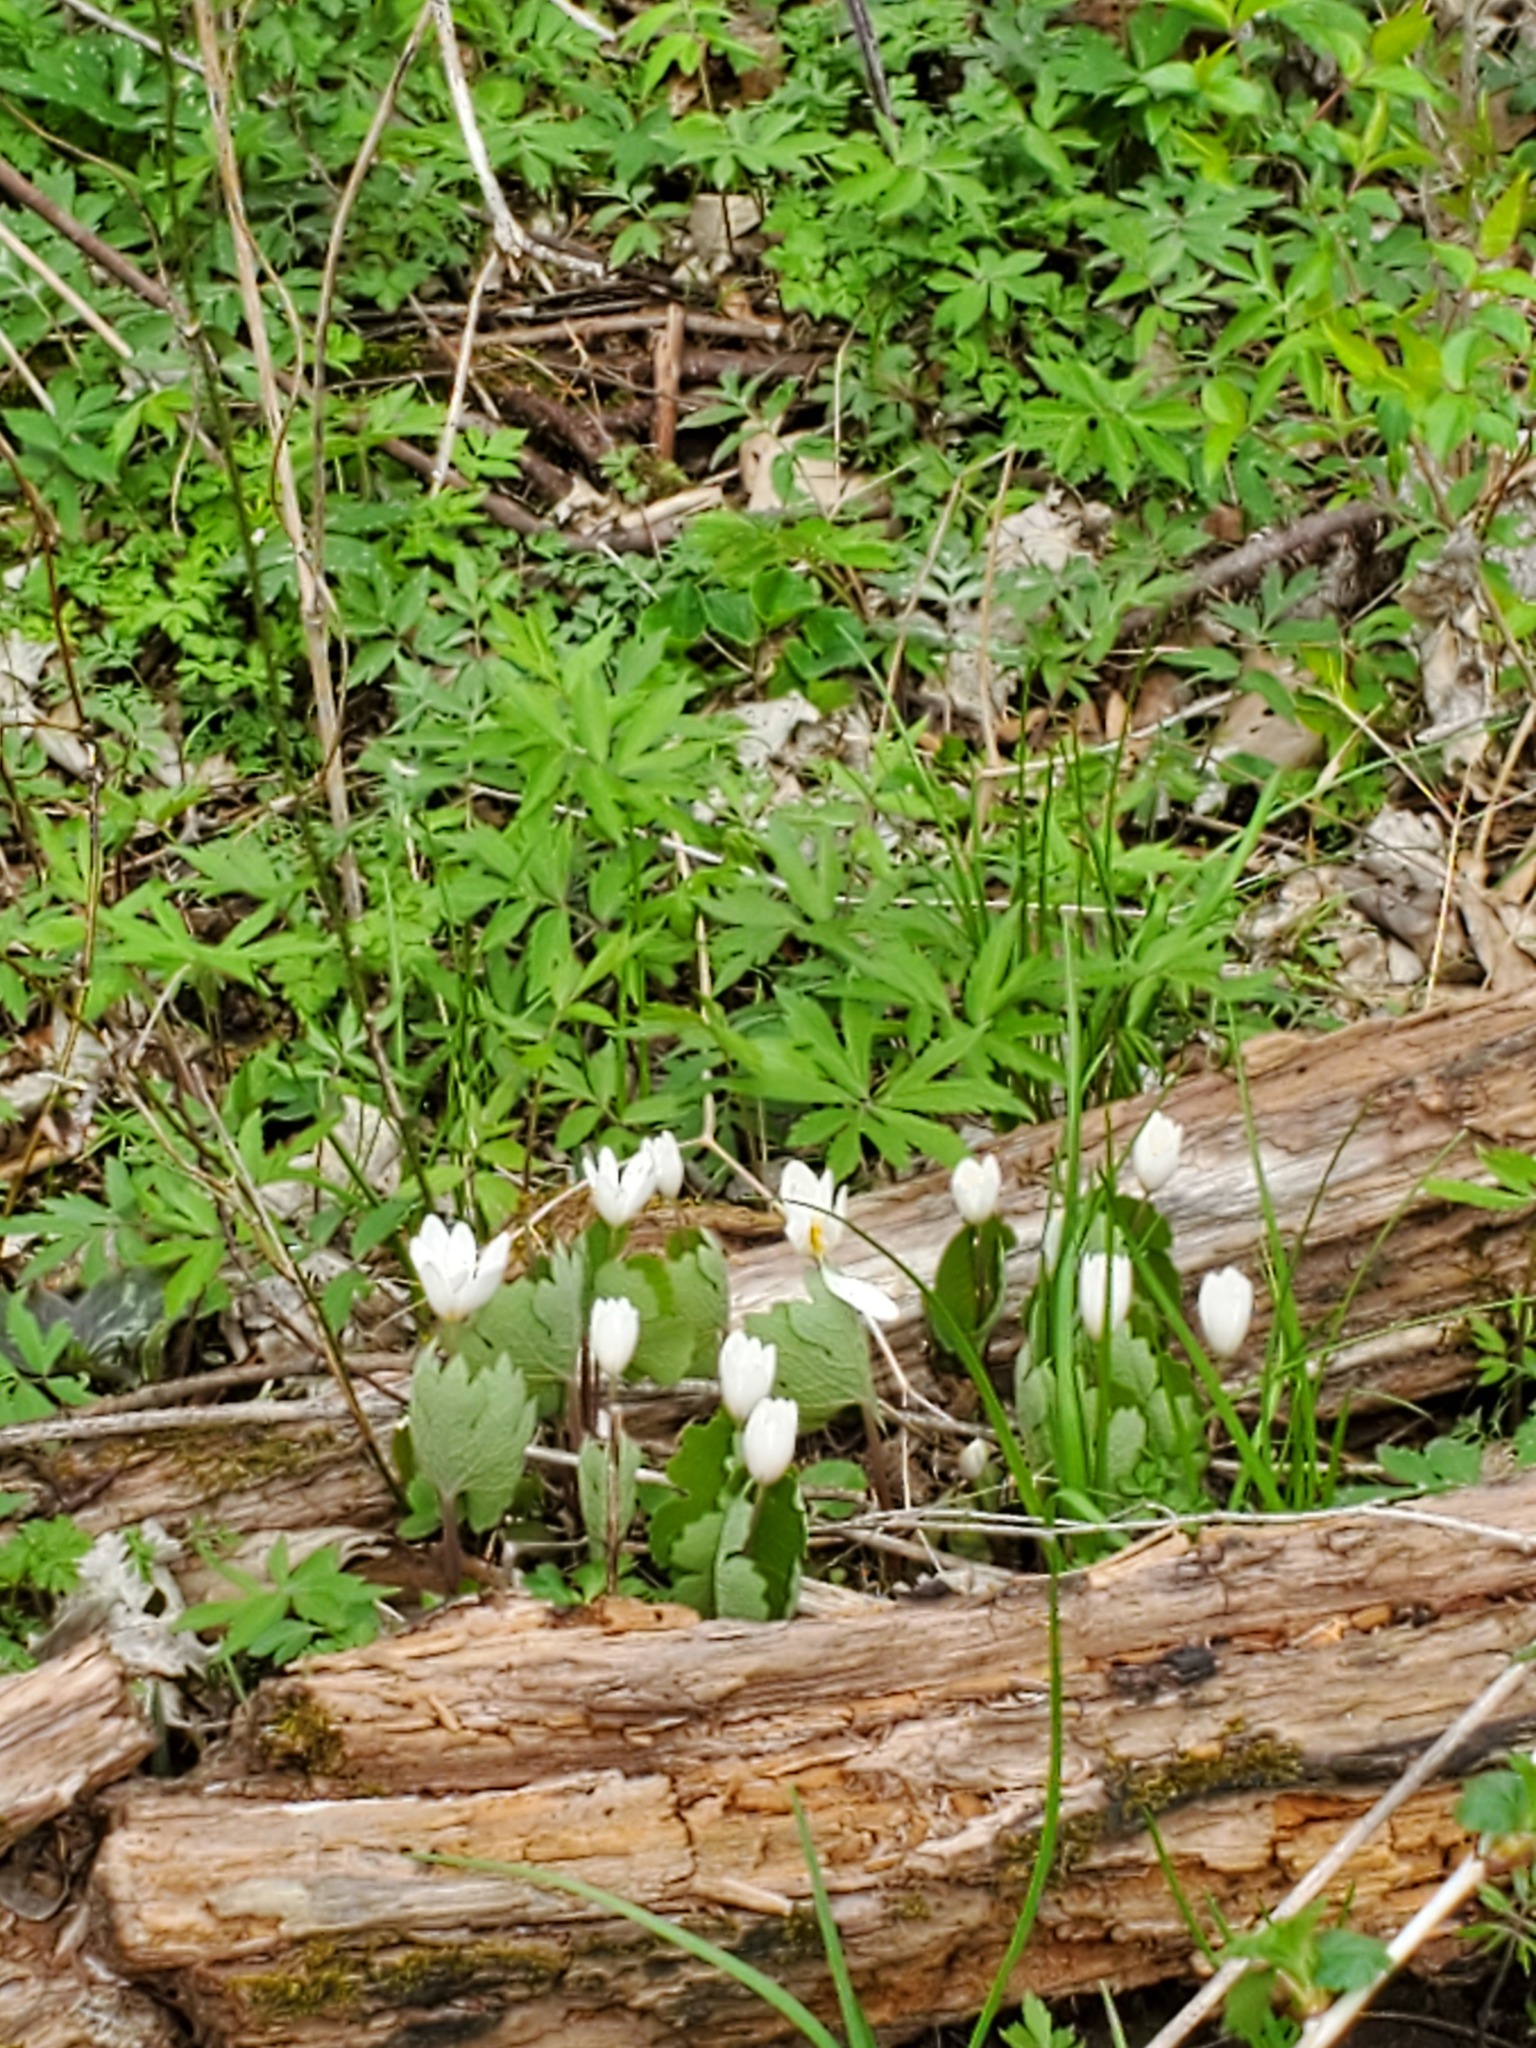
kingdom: Plantae
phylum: Tracheophyta
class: Magnoliopsida
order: Ranunculales
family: Papaveraceae
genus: Sanguinaria
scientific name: Sanguinaria canadensis
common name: Bloodroot
